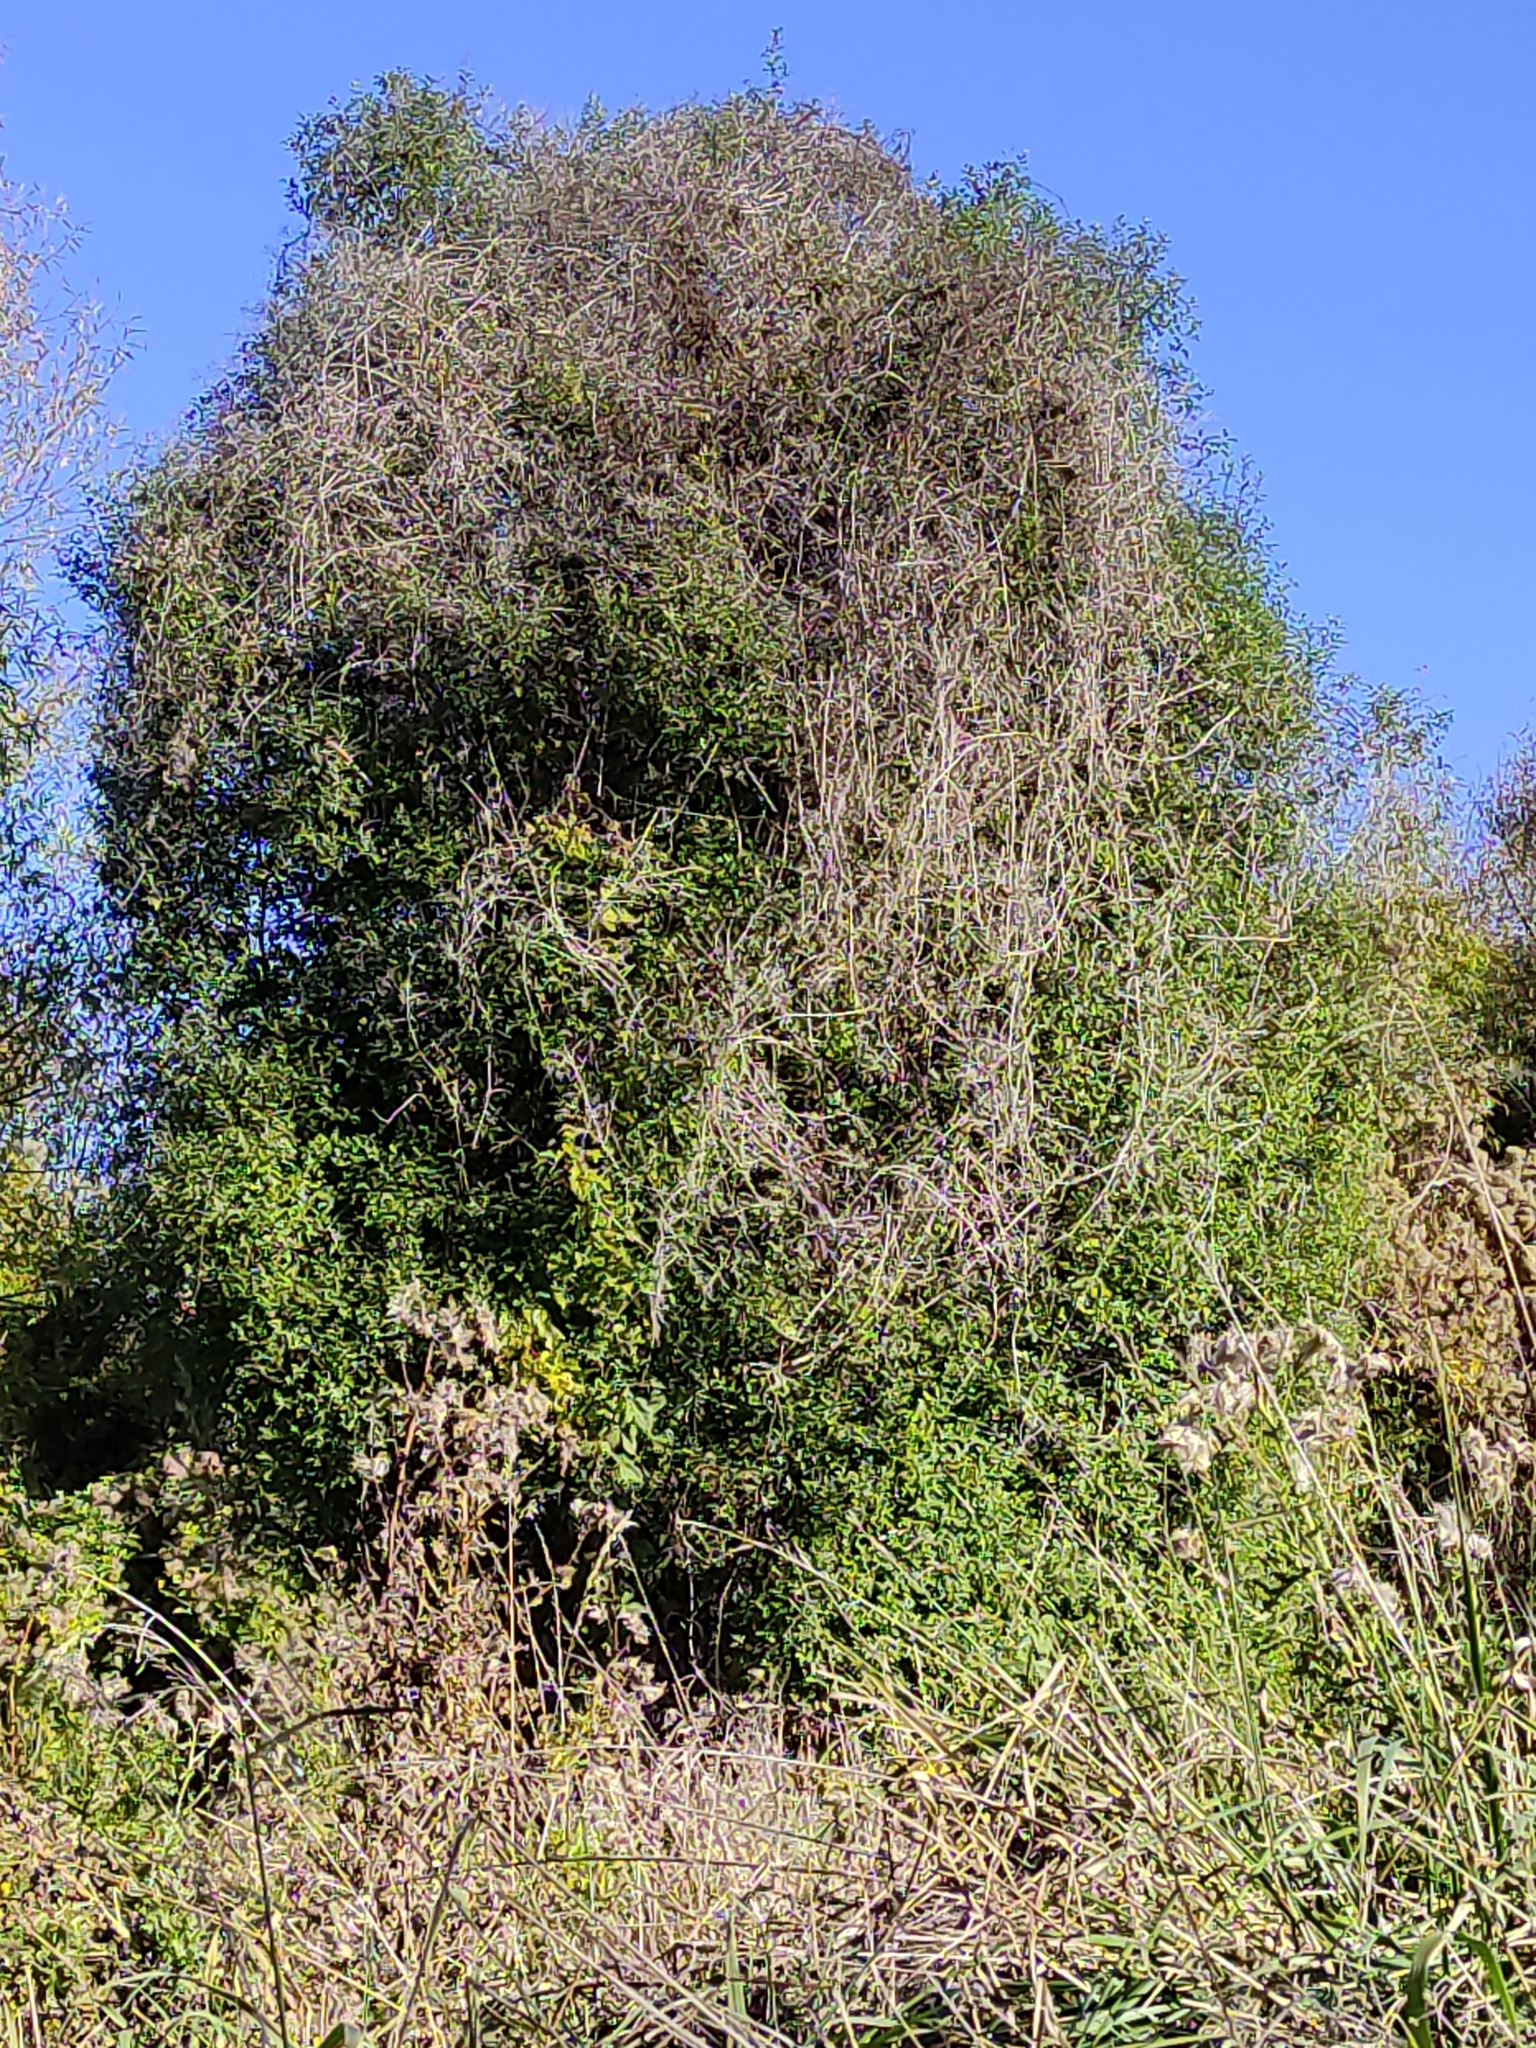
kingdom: Plantae
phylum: Tracheophyta
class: Magnoliopsida
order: Apiales
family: Pittosporaceae
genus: Pittosporum
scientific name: Pittosporum tenuifolium
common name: Kohuhu
